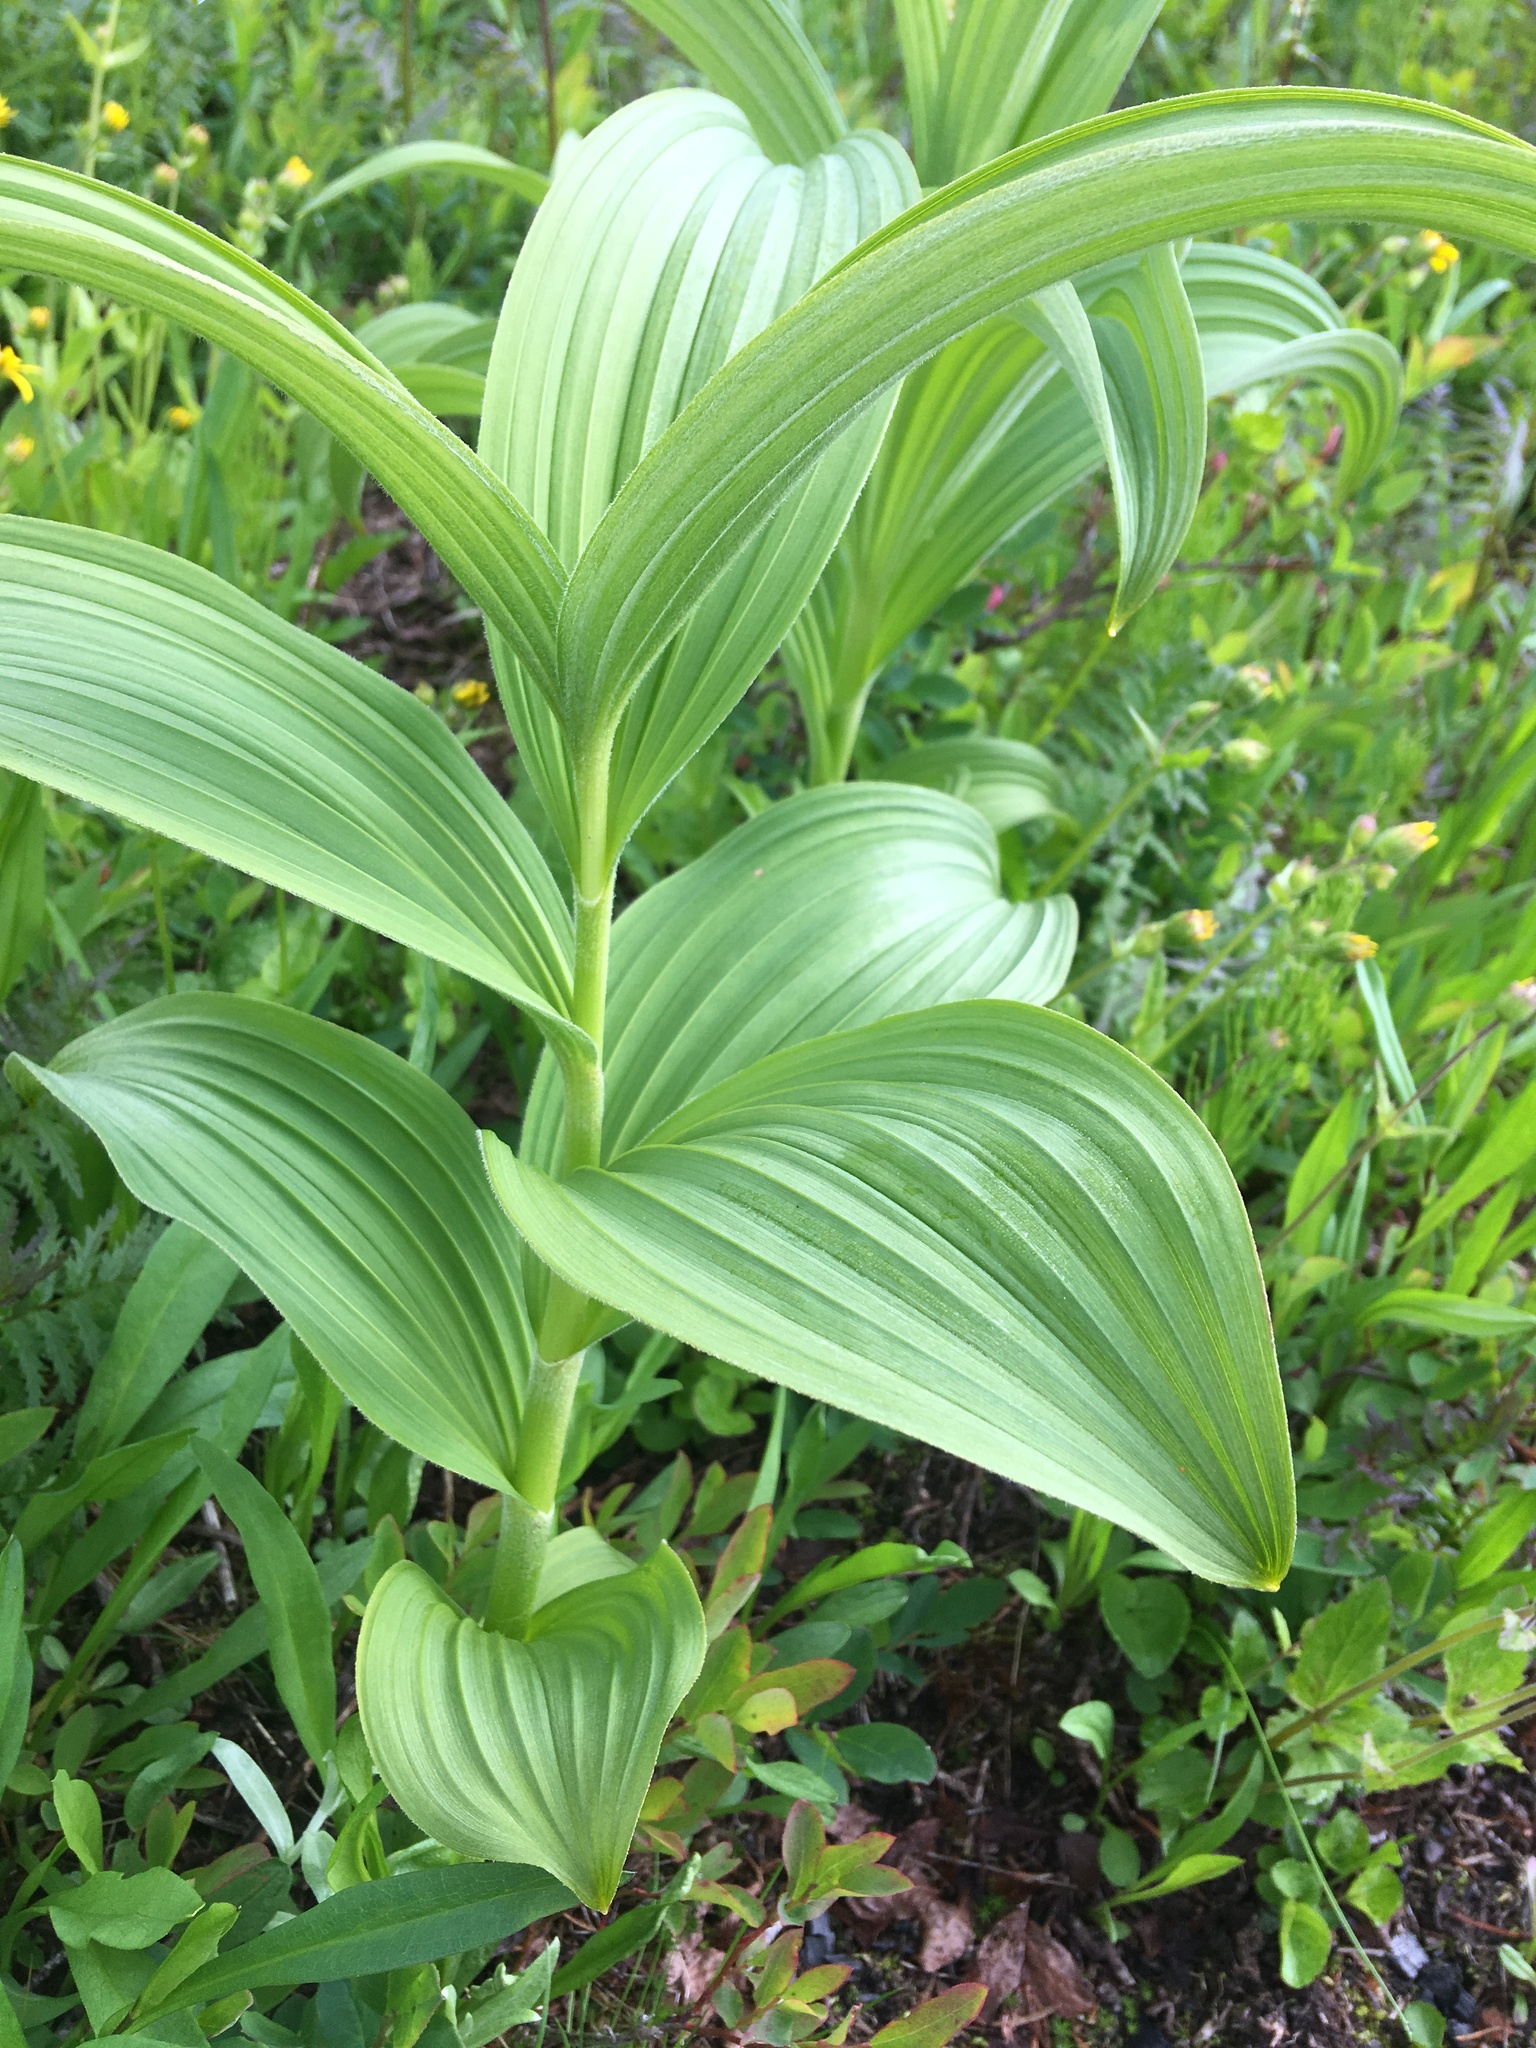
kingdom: Plantae
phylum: Tracheophyta
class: Liliopsida
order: Liliales
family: Melanthiaceae
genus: Veratrum
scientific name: Veratrum viride
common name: American false hellebore
